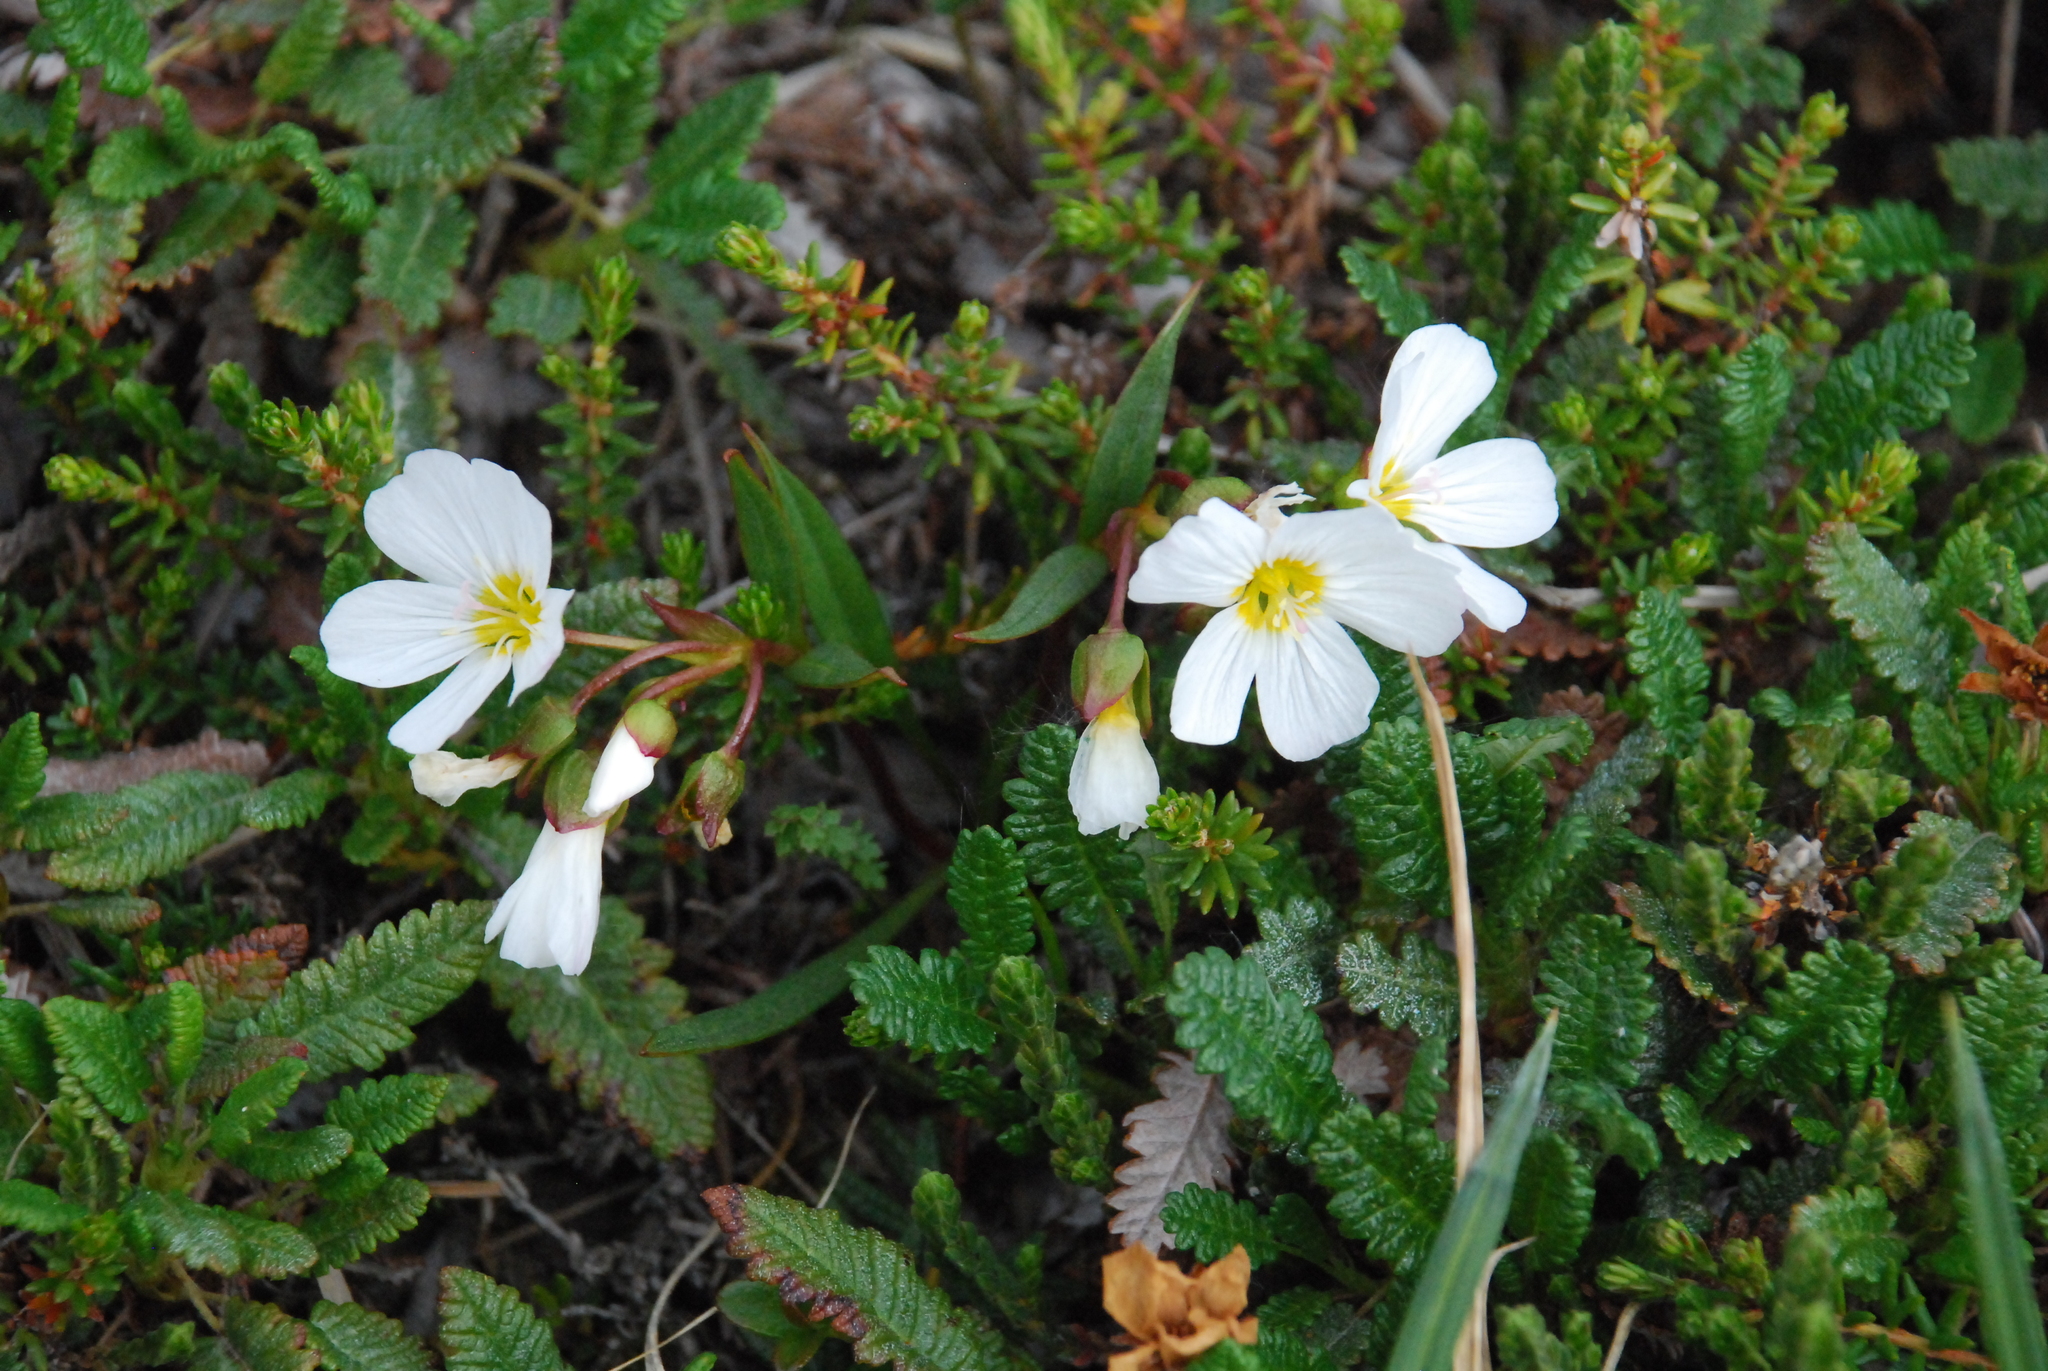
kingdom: Plantae
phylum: Tracheophyta
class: Magnoliopsida
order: Caryophyllales
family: Montiaceae
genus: Claytonia
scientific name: Claytonia acutifolia
